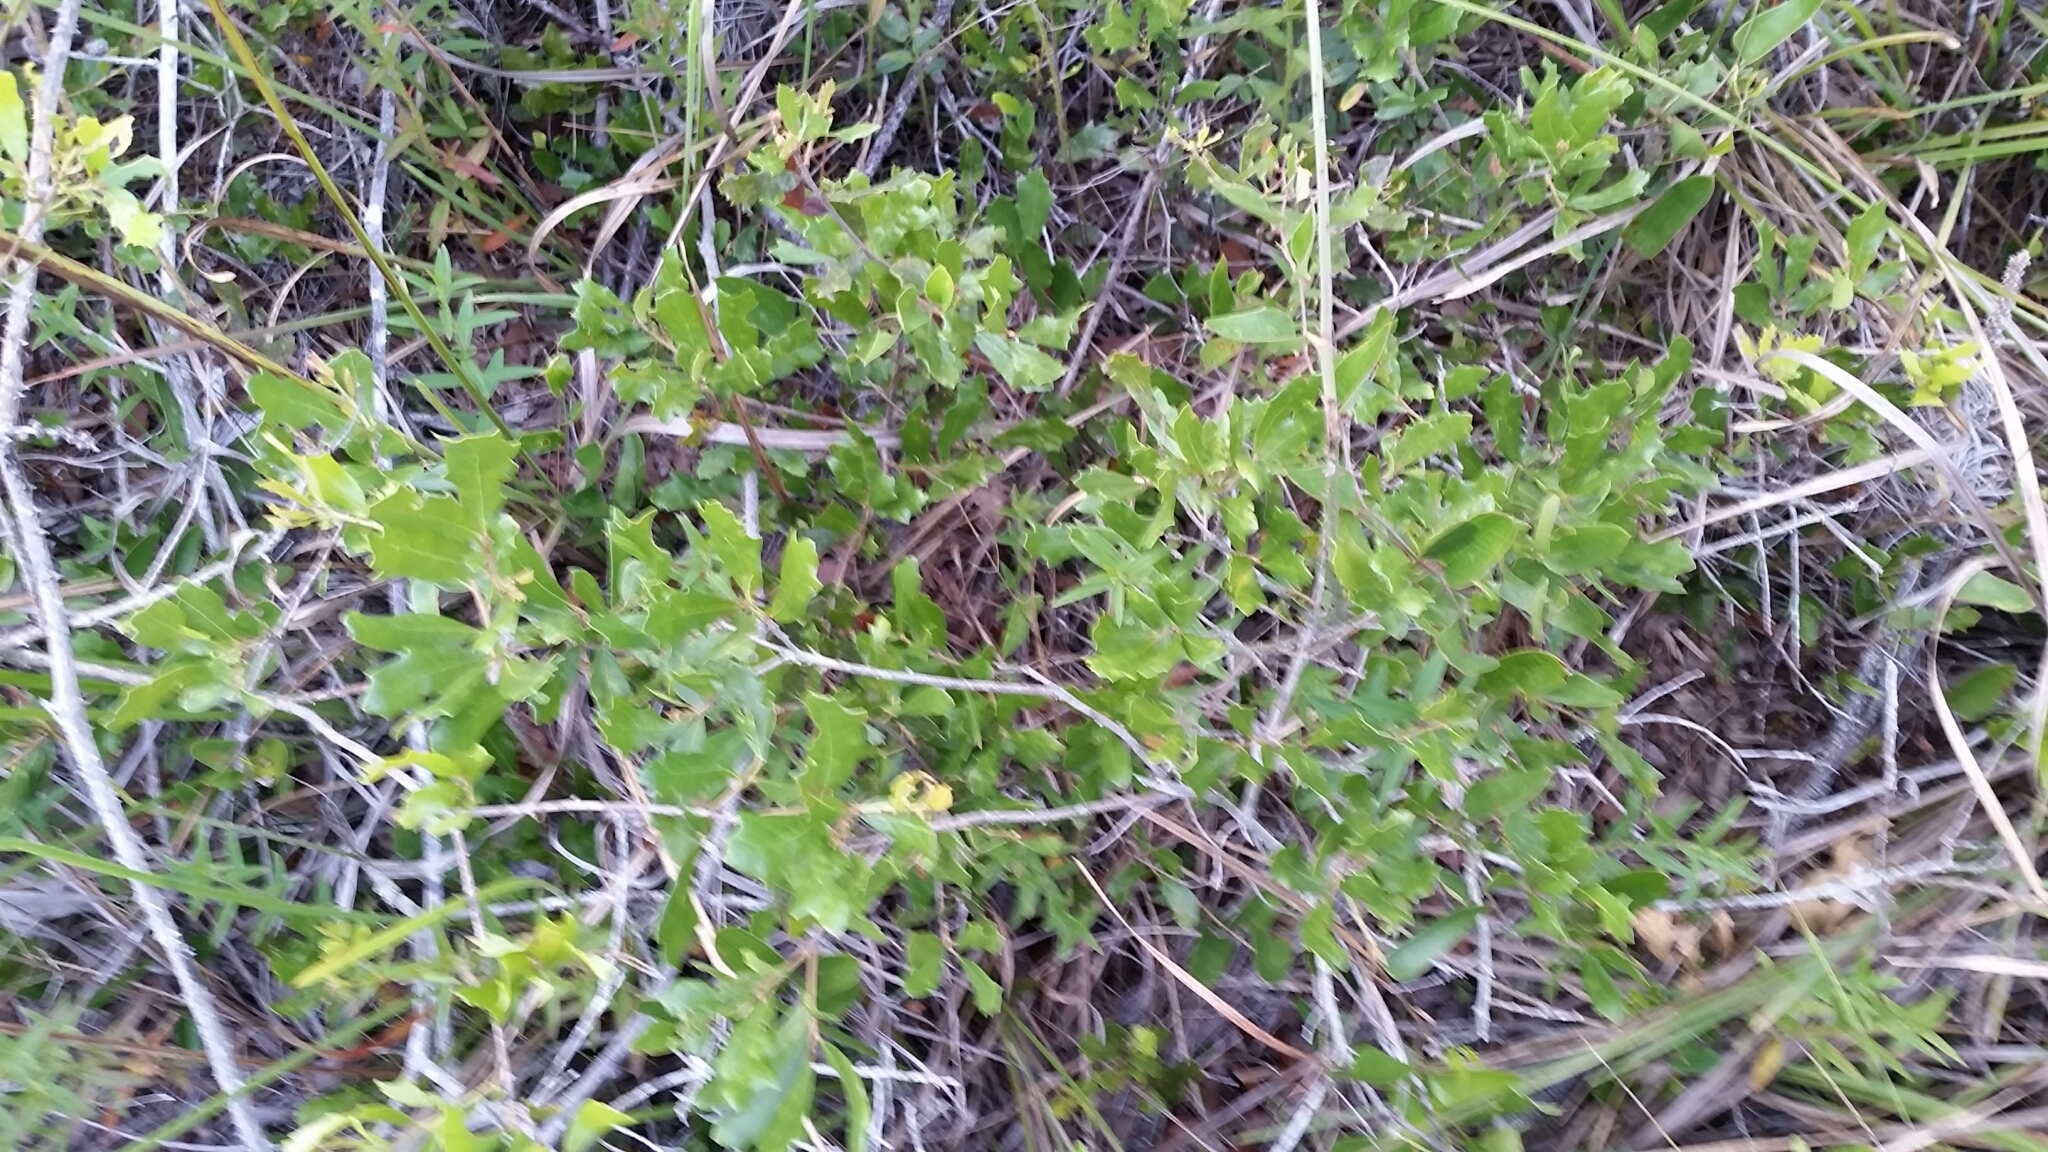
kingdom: Plantae
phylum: Tracheophyta
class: Magnoliopsida
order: Fagales
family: Fagaceae
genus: Quercus
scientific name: Quercus minima
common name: Dwarf live oak
